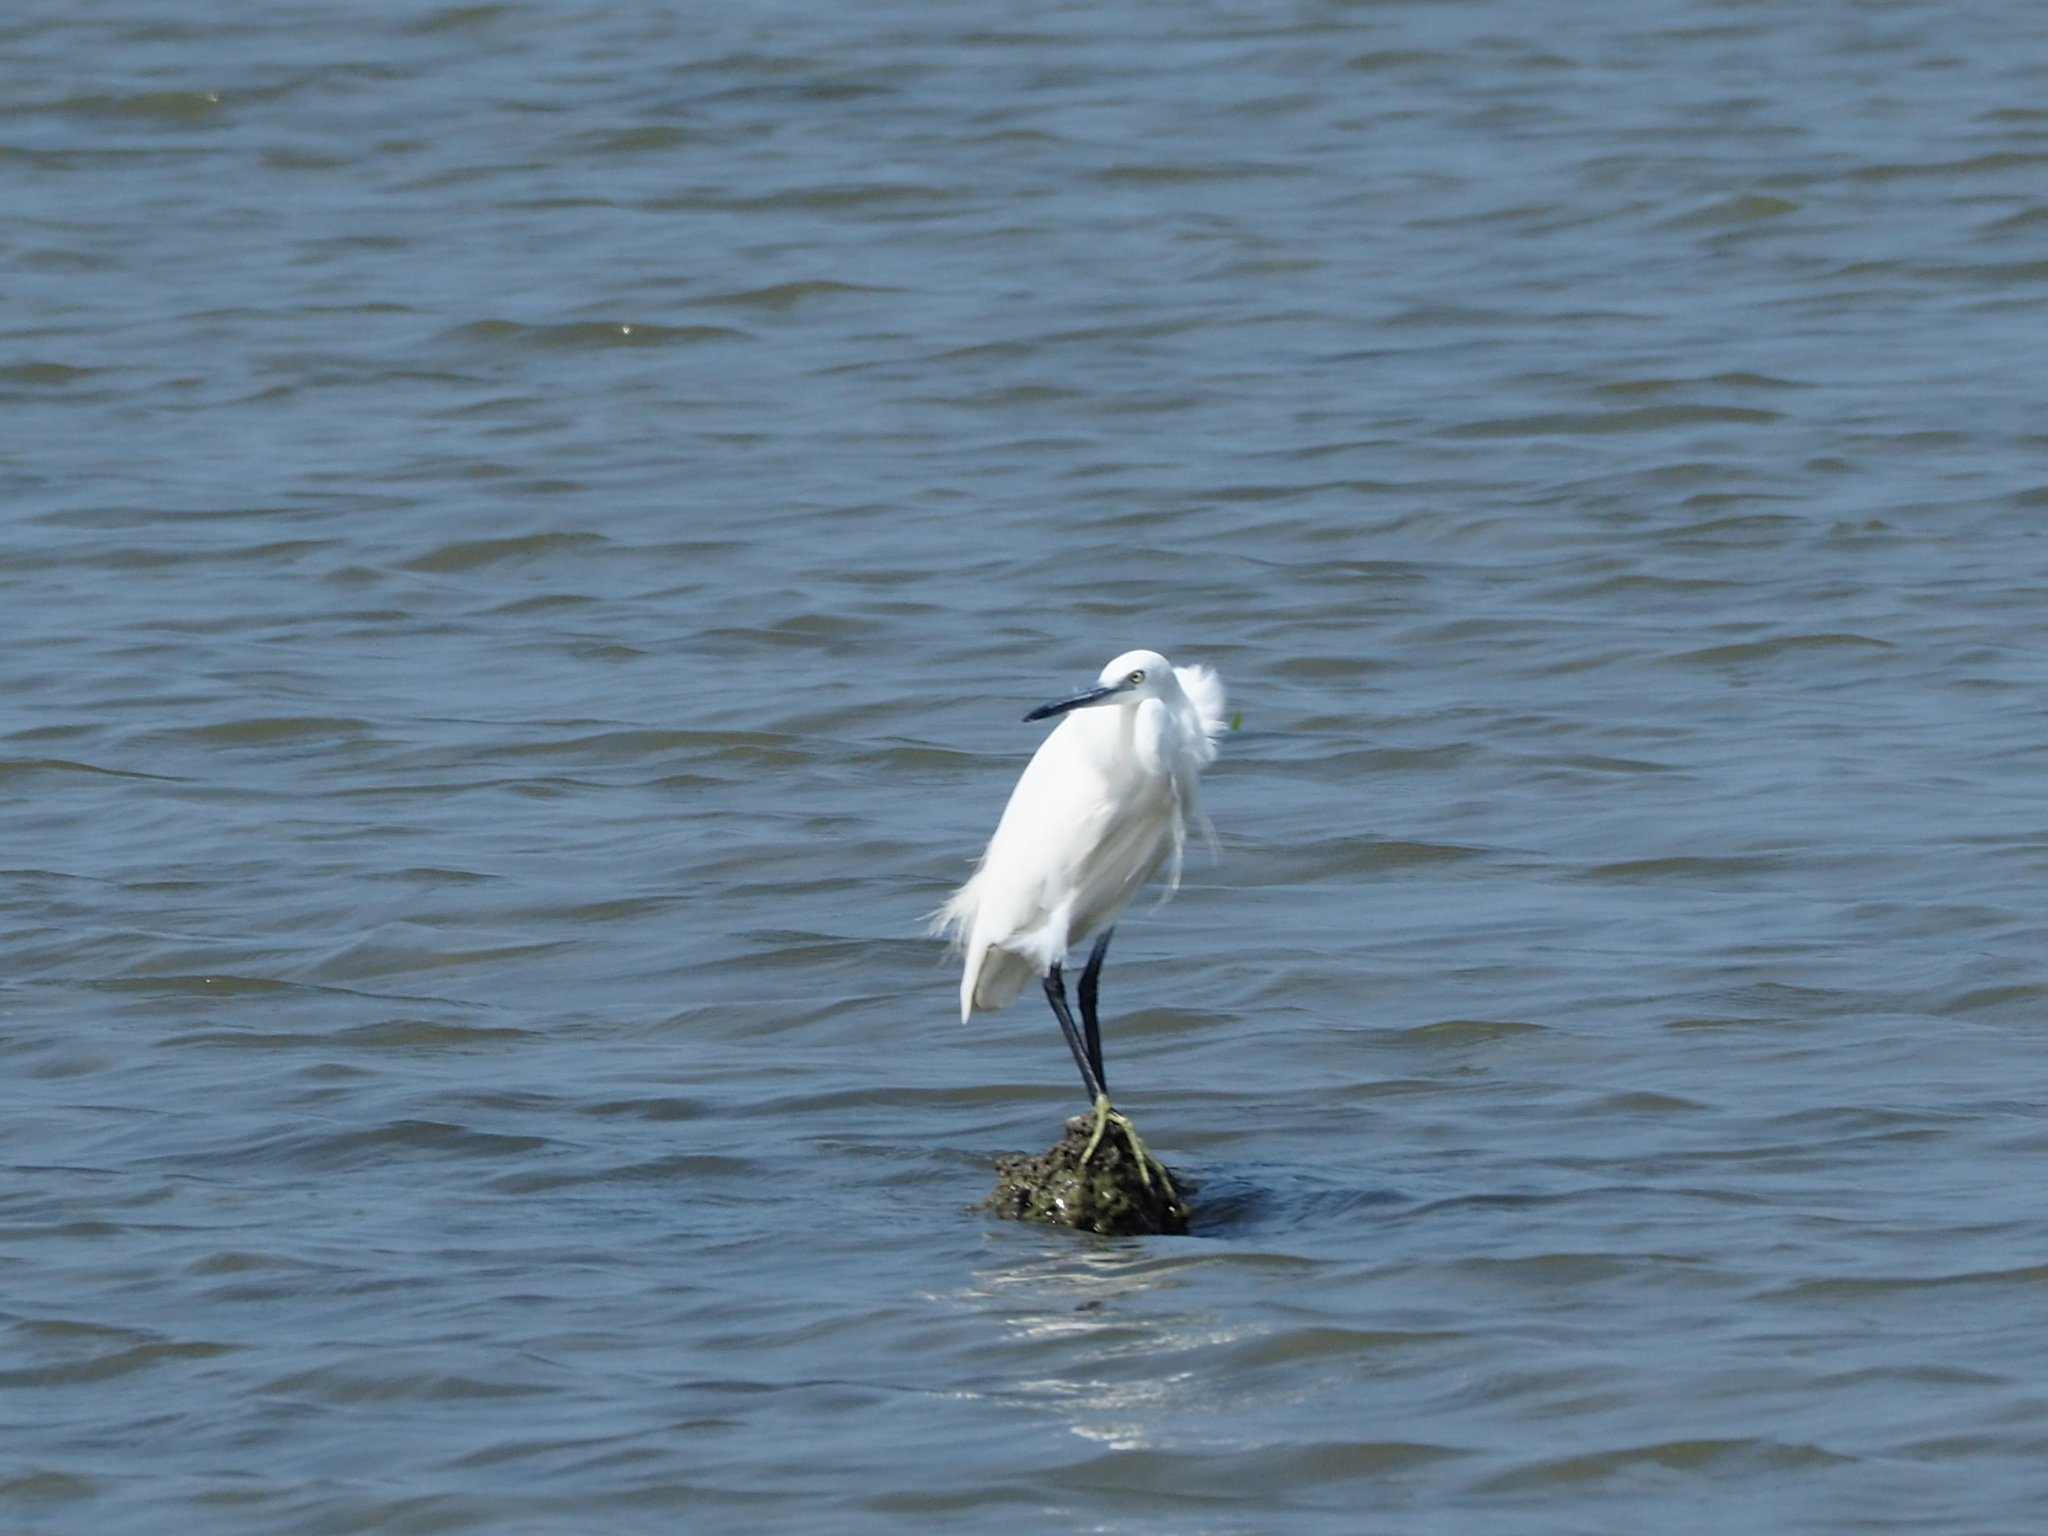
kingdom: Animalia
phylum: Chordata
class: Aves
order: Pelecaniformes
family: Ardeidae
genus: Egretta
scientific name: Egretta garzetta
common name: Little egret
